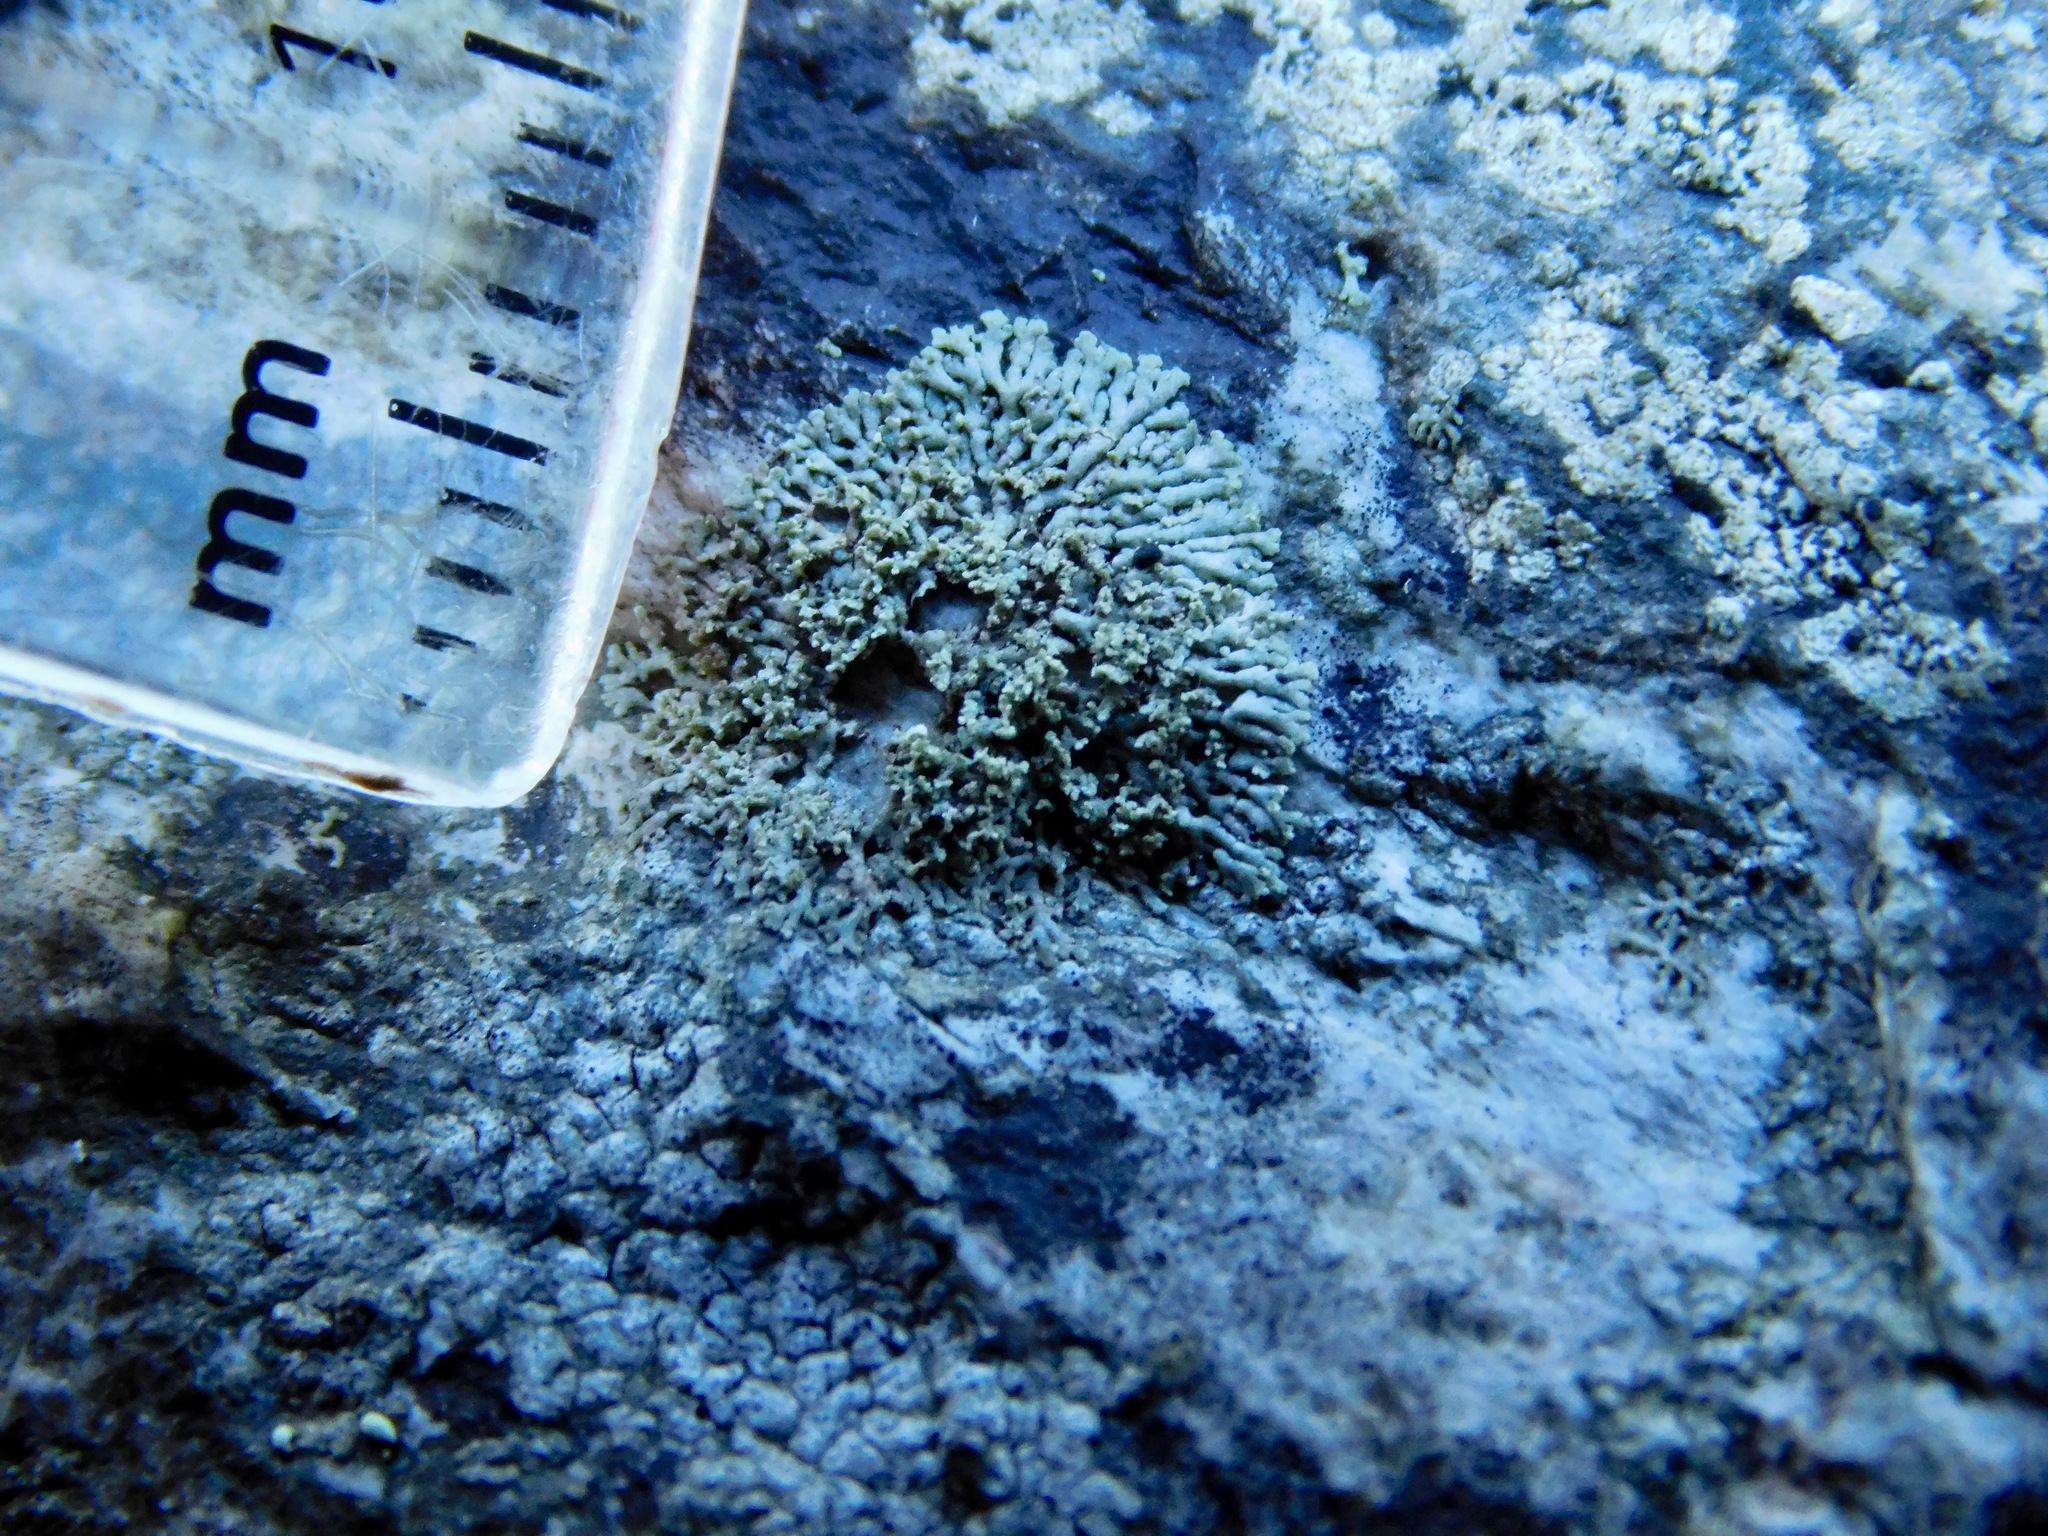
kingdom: Fungi
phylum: Ascomycota
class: Lecanoromycetes
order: Caliciales
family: Physciaceae
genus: Physcia
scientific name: Physcia subtilis
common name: Slender rosette lichen
